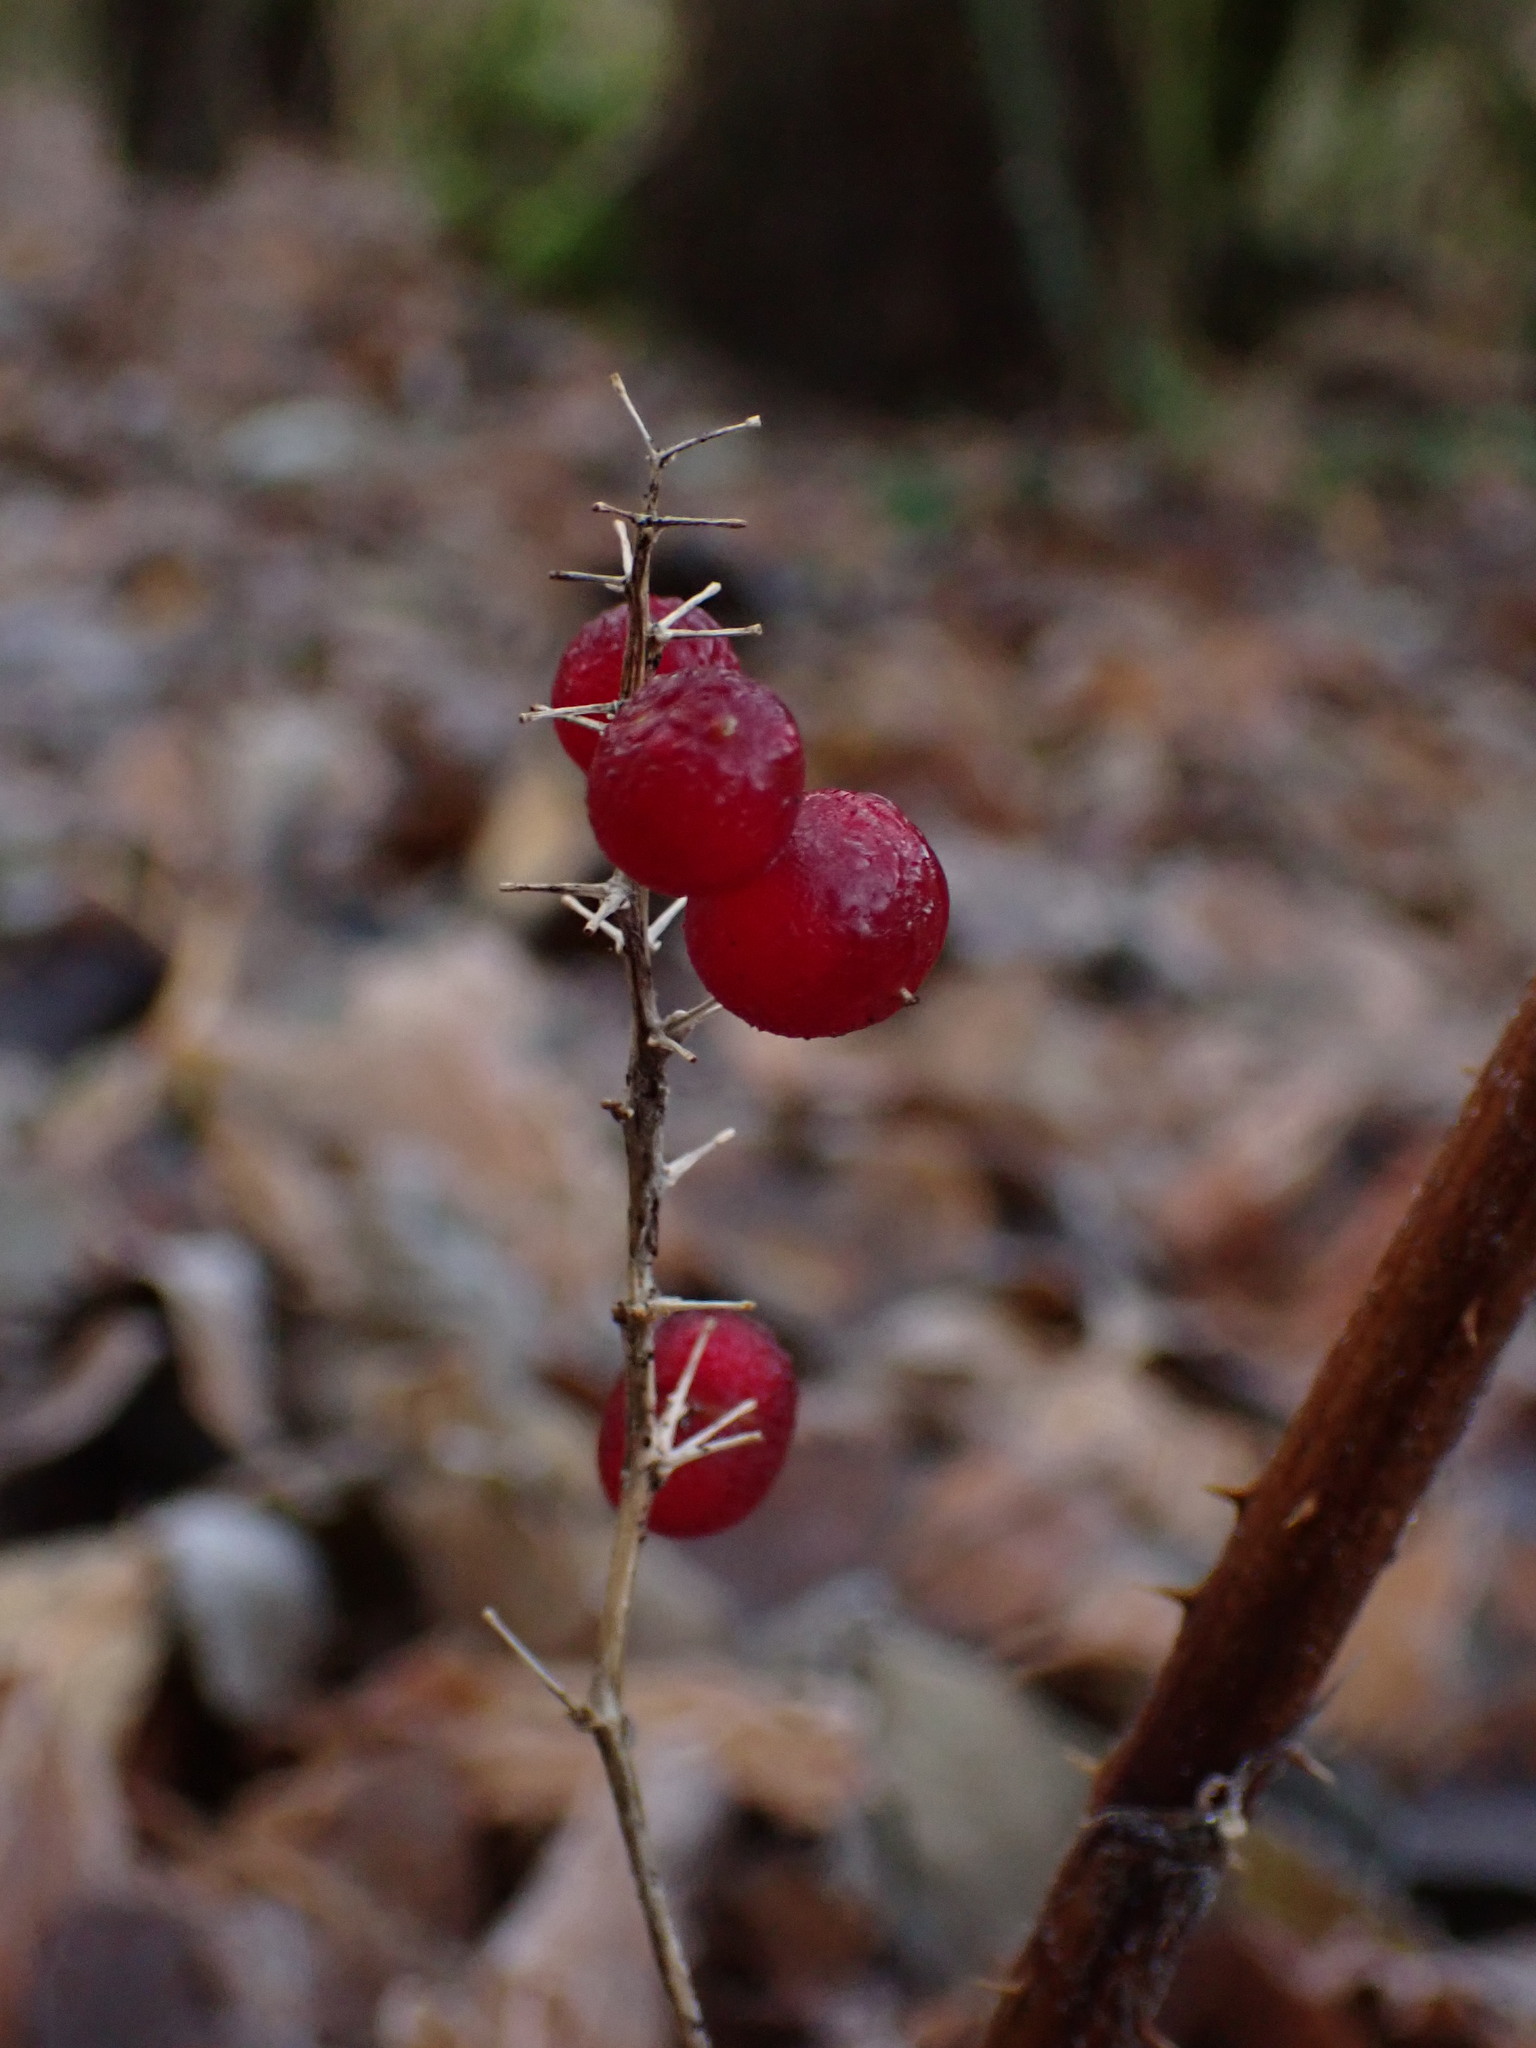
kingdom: Plantae
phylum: Tracheophyta
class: Liliopsida
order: Asparagales
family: Asparagaceae
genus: Maianthemum
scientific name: Maianthemum dilatatum
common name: False lily-of-the-valley
